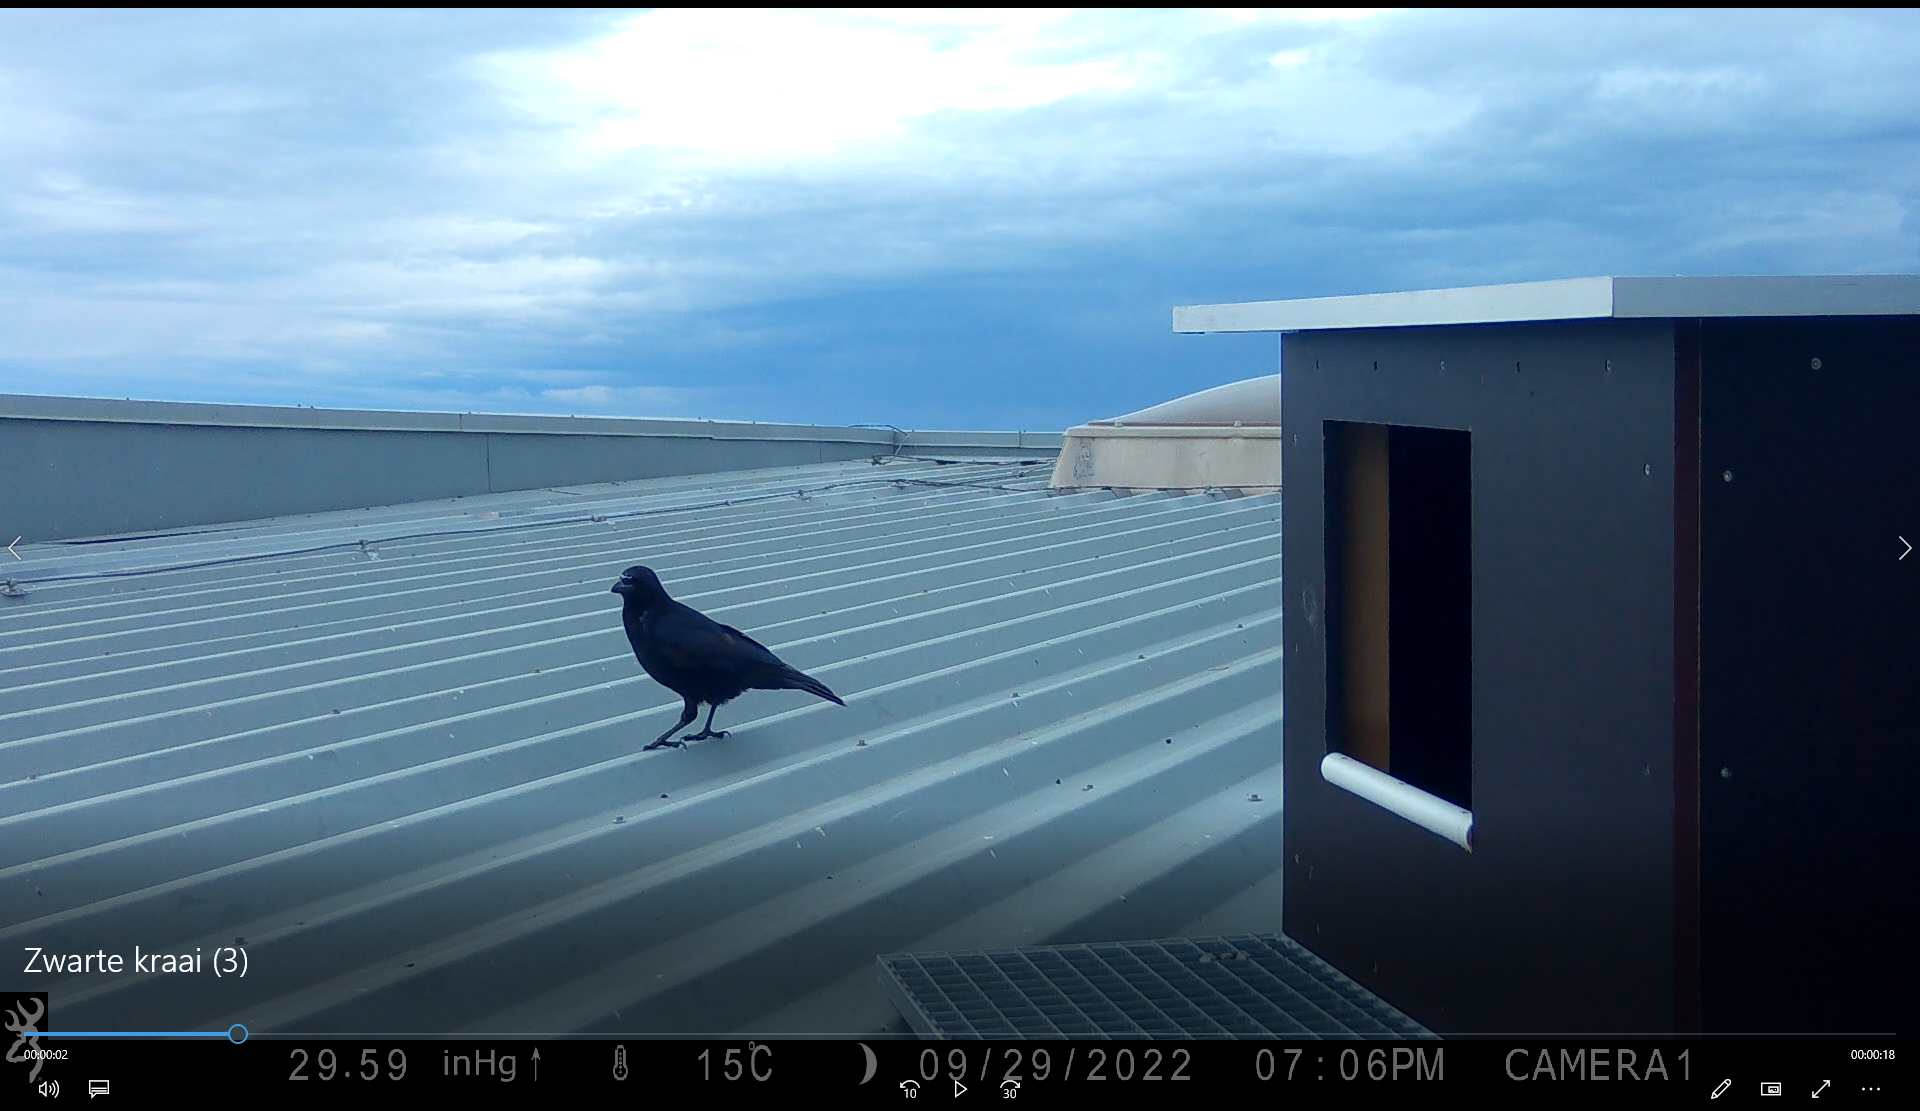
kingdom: Animalia
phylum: Chordata
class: Aves
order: Passeriformes
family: Corvidae
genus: Corvus
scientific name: Corvus corone
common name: Carrion crow
